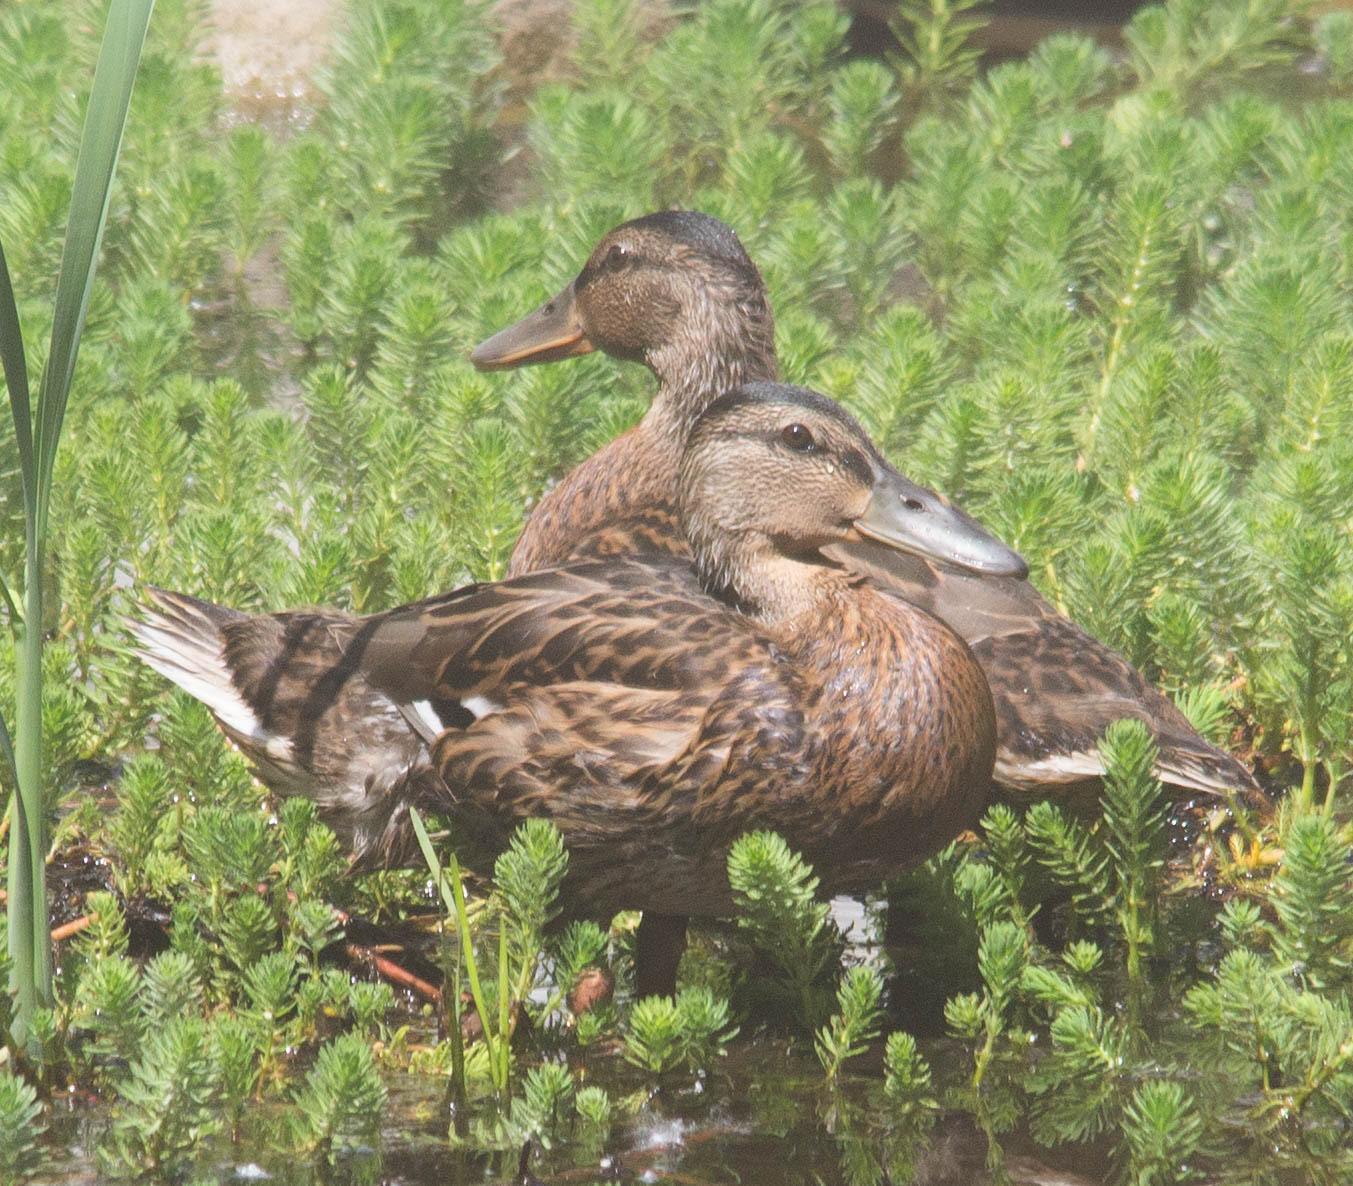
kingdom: Animalia
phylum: Chordata
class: Aves
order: Anseriformes
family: Anatidae
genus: Anas
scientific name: Anas platyrhynchos
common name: Mallard
